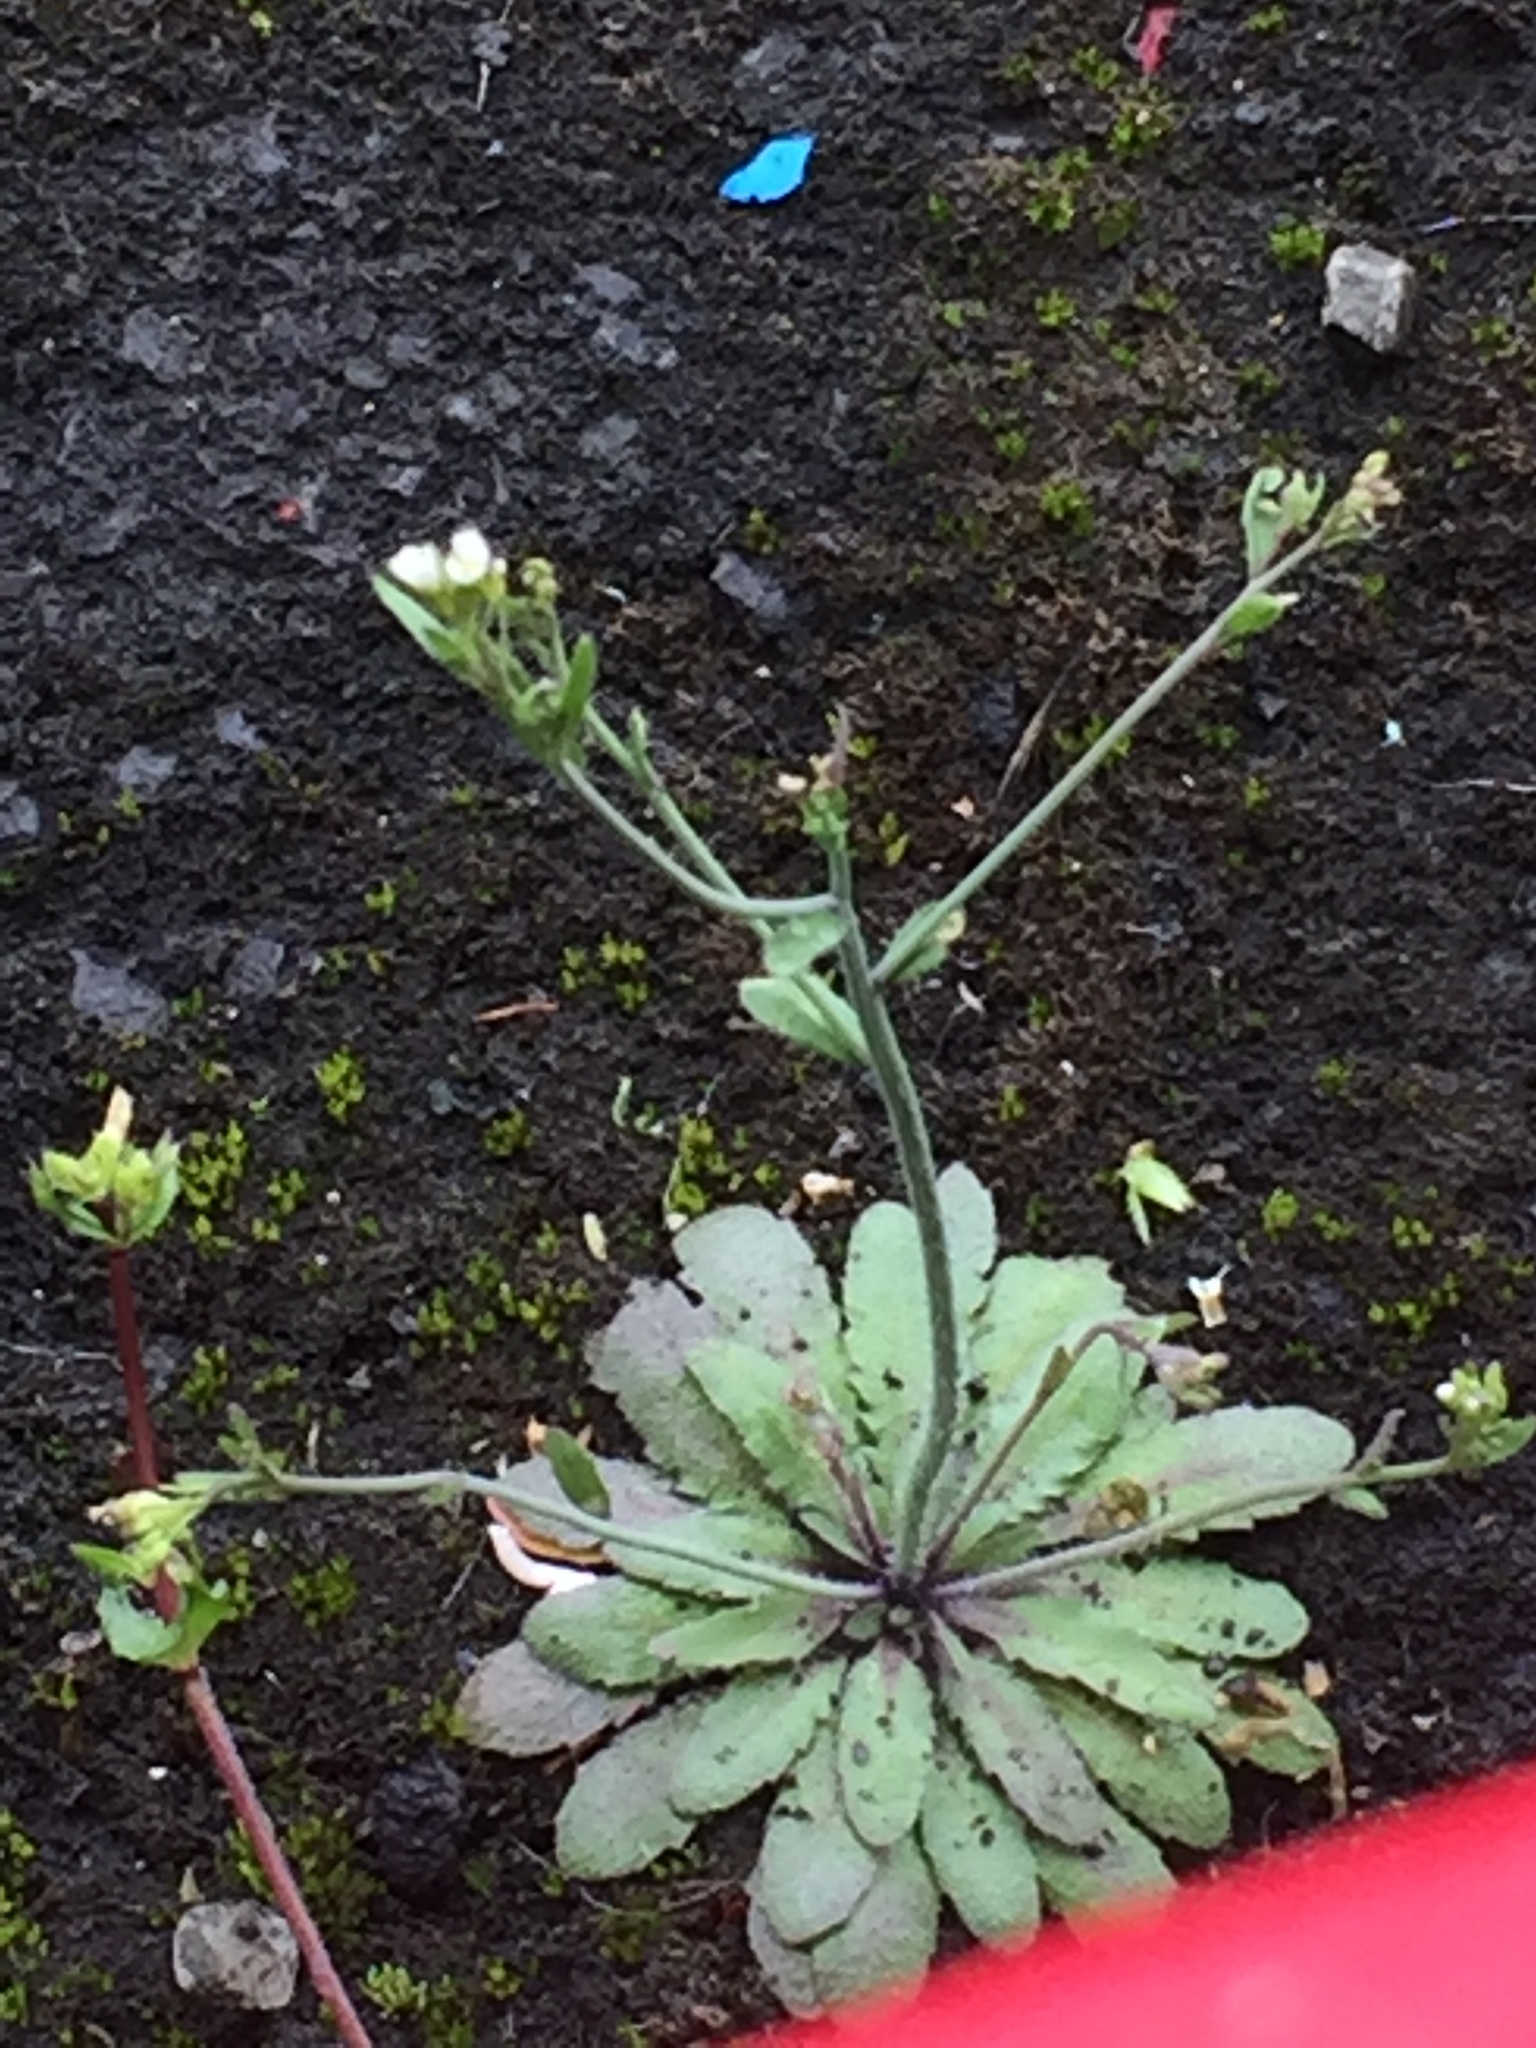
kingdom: Plantae
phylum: Tracheophyta
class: Magnoliopsida
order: Brassicales
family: Brassicaceae
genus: Arabidopsis
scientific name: Arabidopsis thaliana
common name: Thale cress
